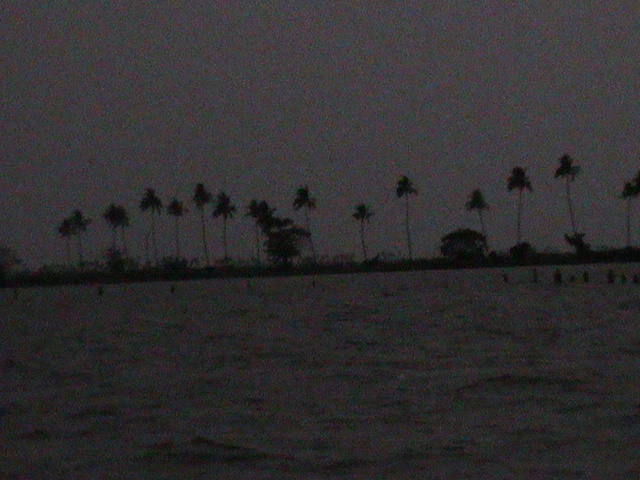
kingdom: Plantae
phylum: Tracheophyta
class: Liliopsida
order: Arecales
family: Arecaceae
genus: Cocos
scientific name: Cocos nucifera
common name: Coconut palm
